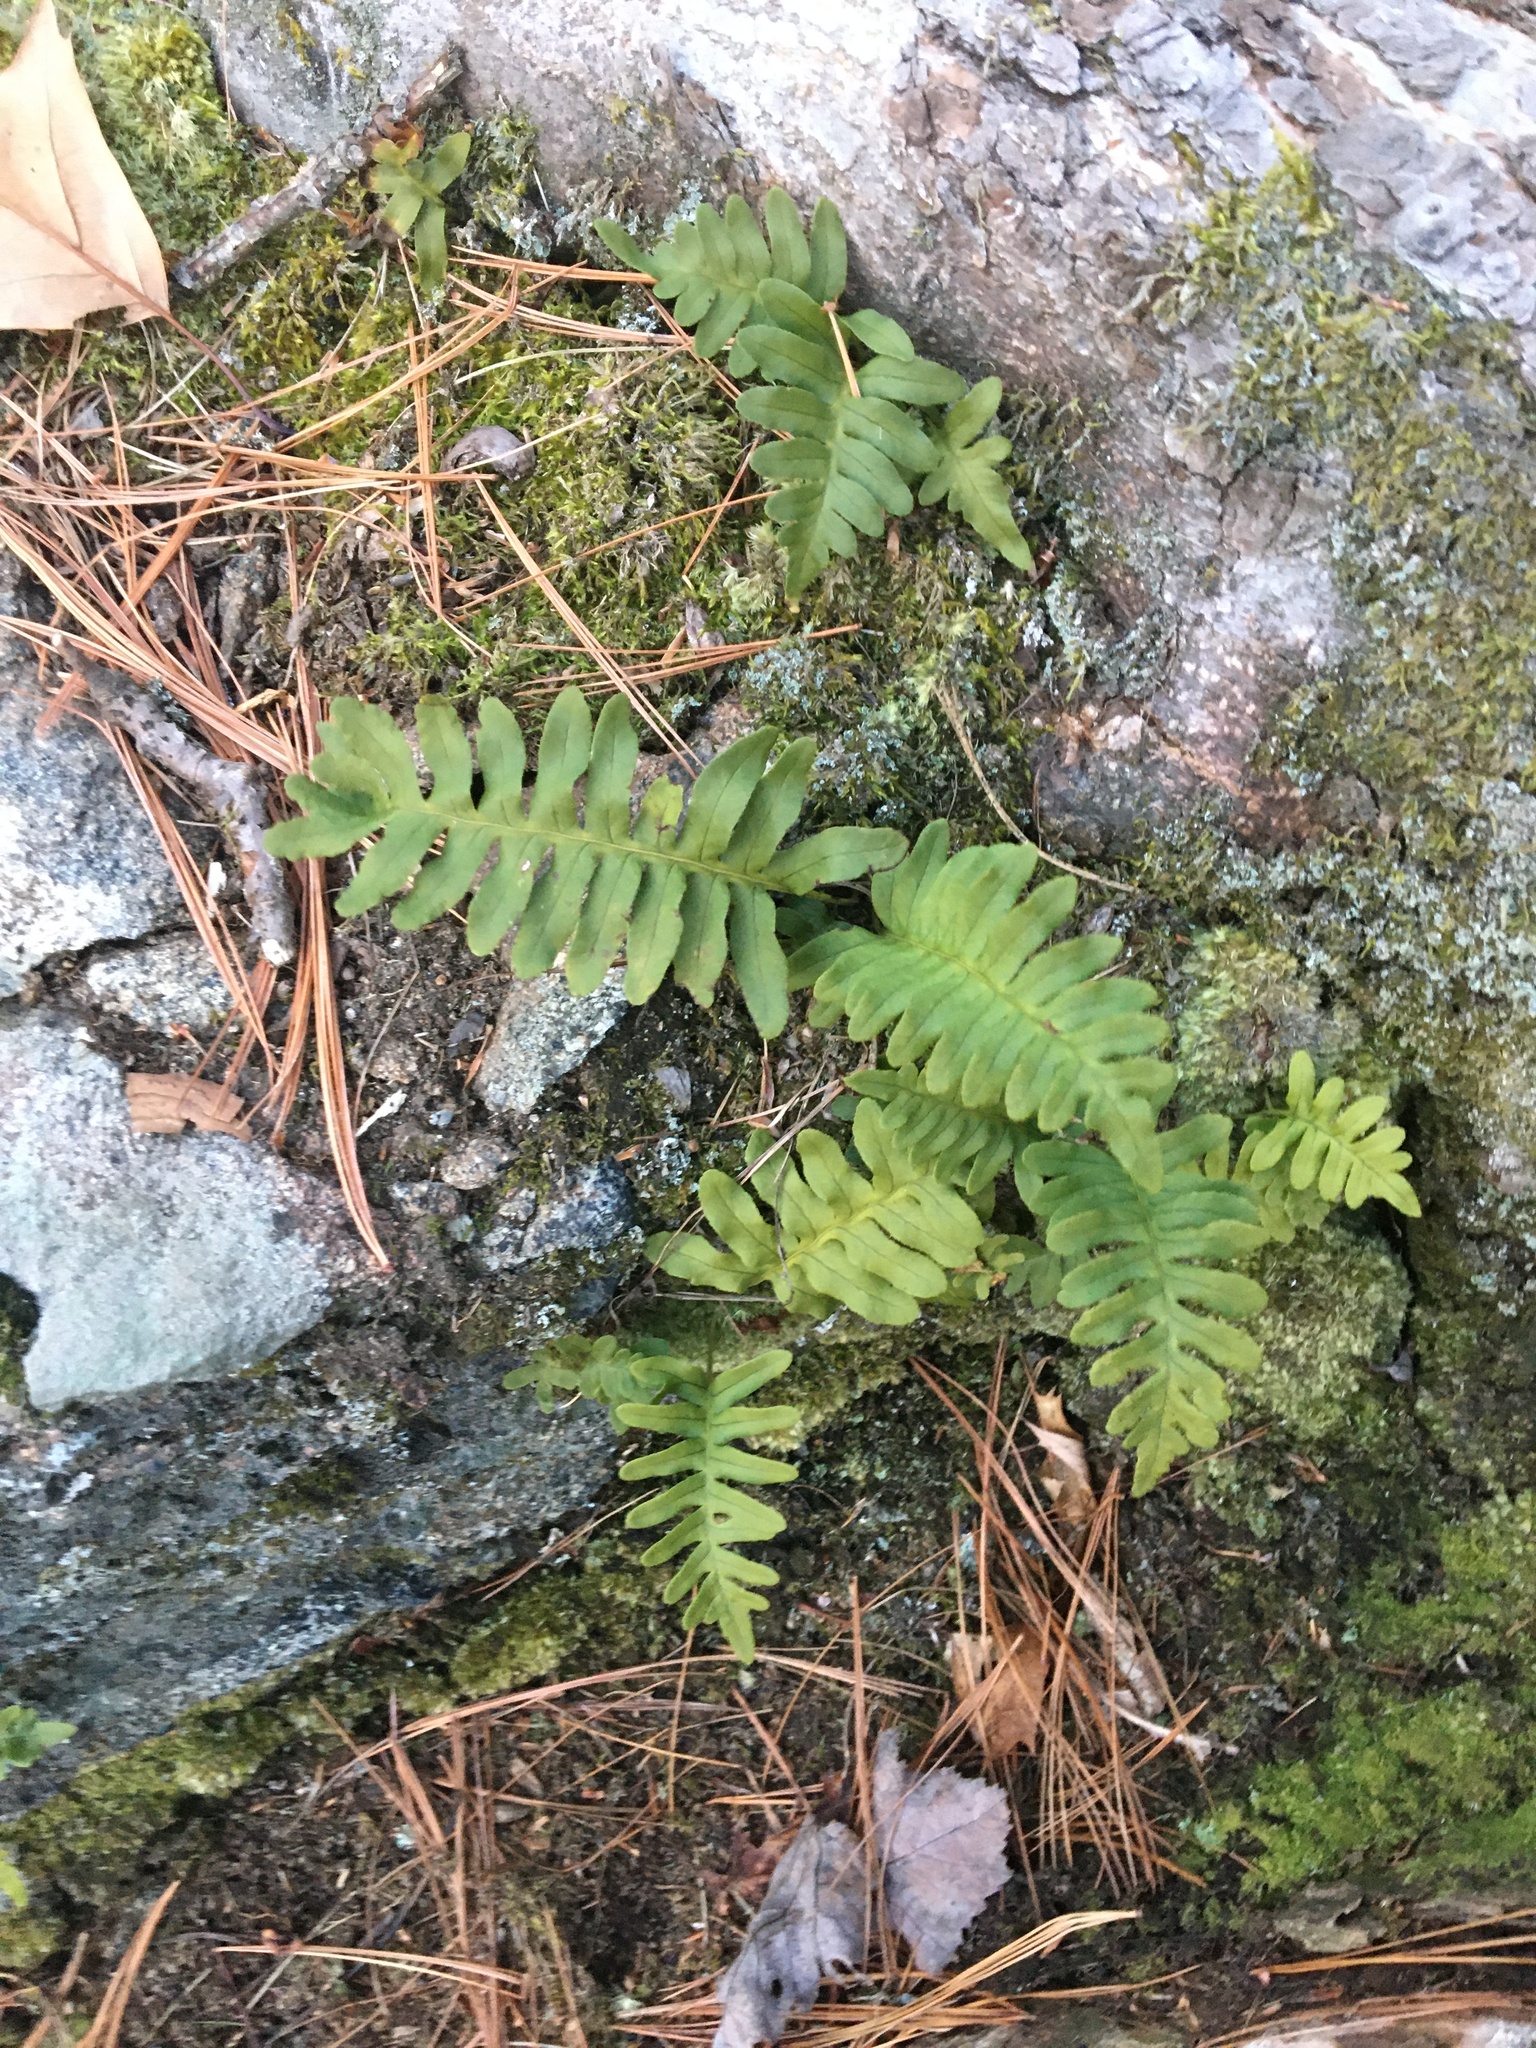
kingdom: Plantae
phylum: Tracheophyta
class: Polypodiopsida
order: Polypodiales
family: Polypodiaceae
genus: Polypodium
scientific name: Polypodium
